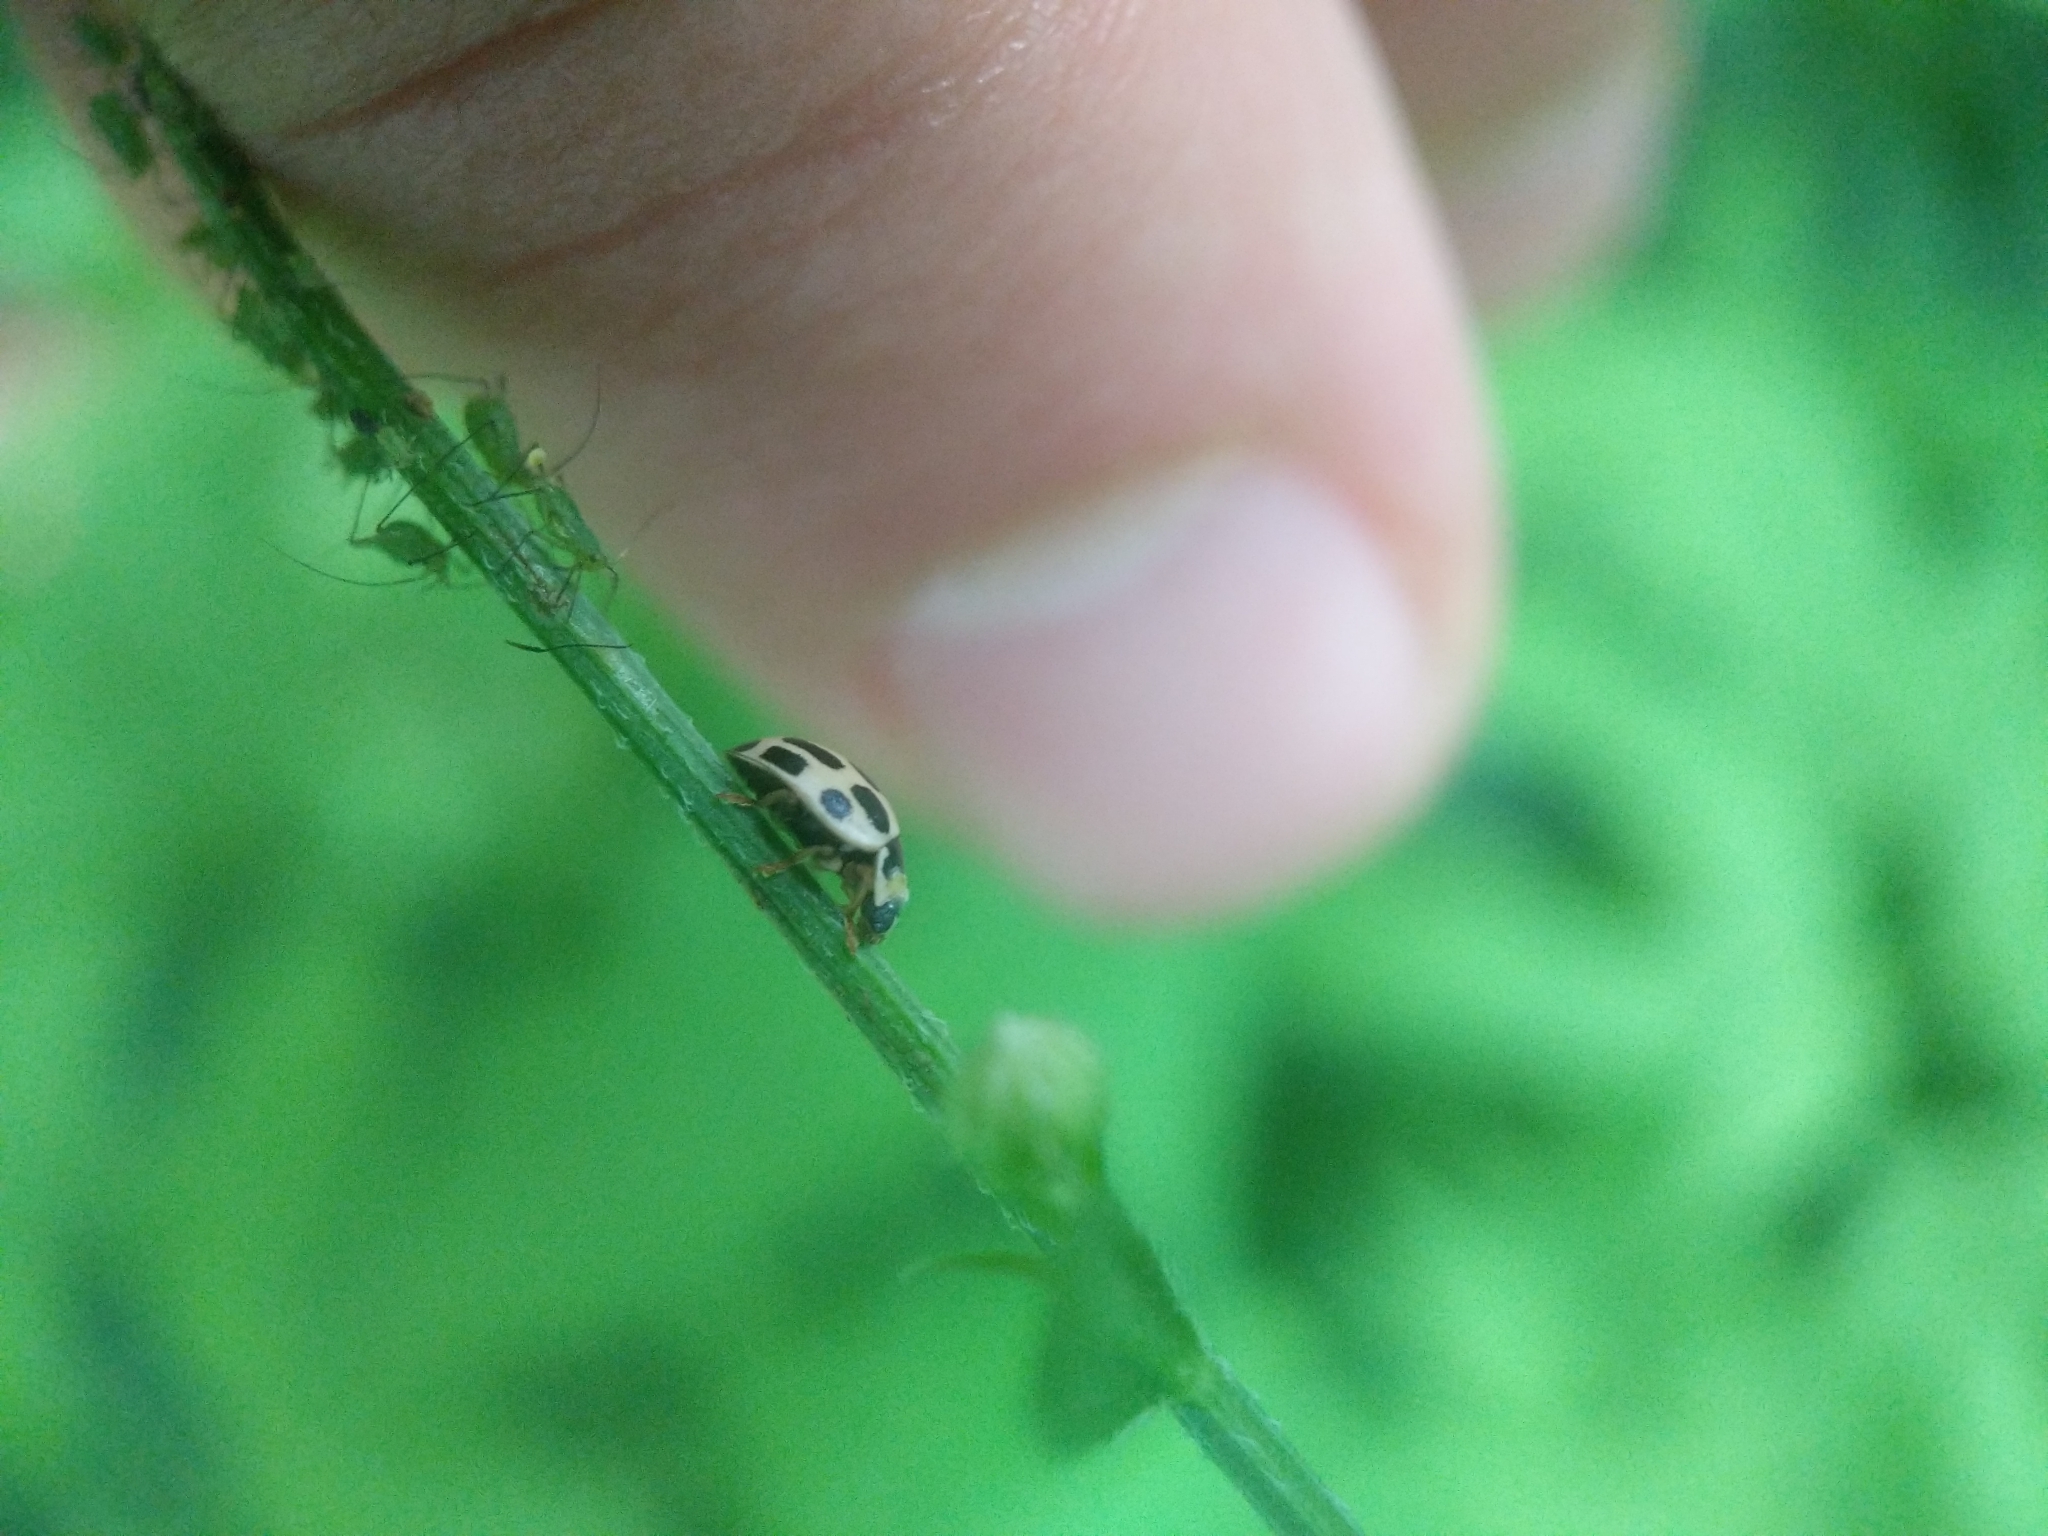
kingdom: Animalia
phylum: Arthropoda
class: Insecta
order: Coleoptera
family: Coccinellidae
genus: Propylaea
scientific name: Propylaea quatuordecimpunctata
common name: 14-spotted ladybird beetle
